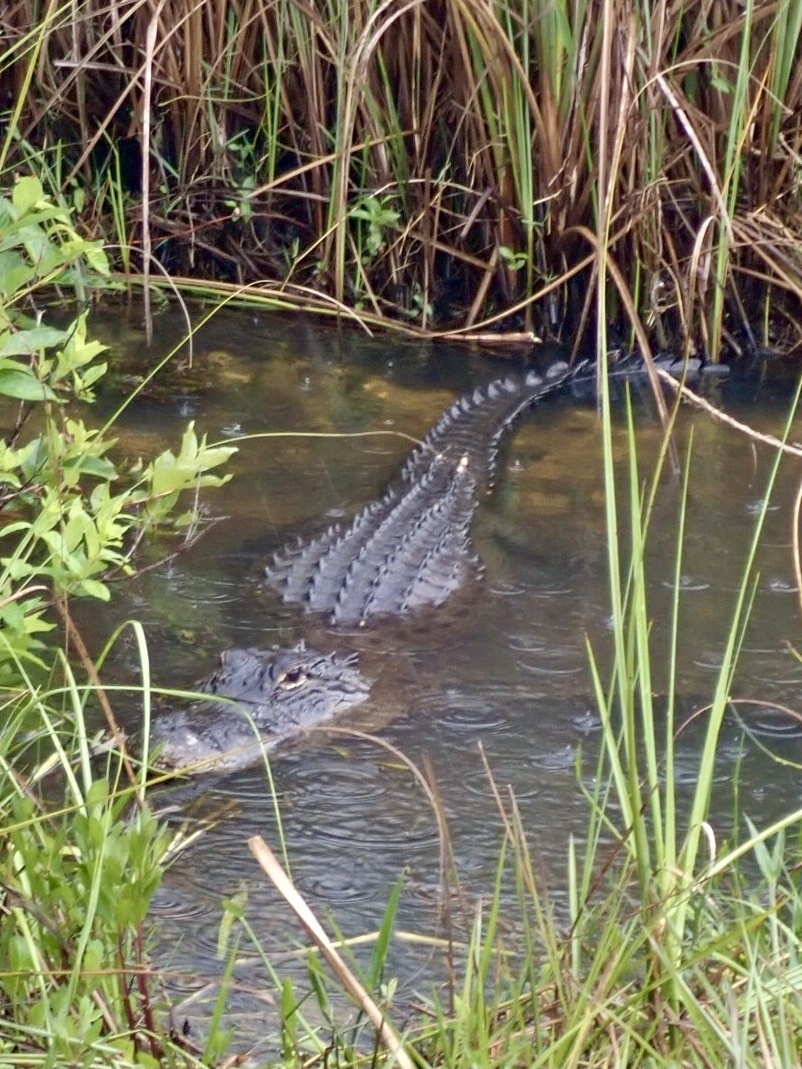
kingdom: Animalia
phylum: Chordata
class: Crocodylia
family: Alligatoridae
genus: Alligator
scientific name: Alligator mississippiensis
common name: American alligator
